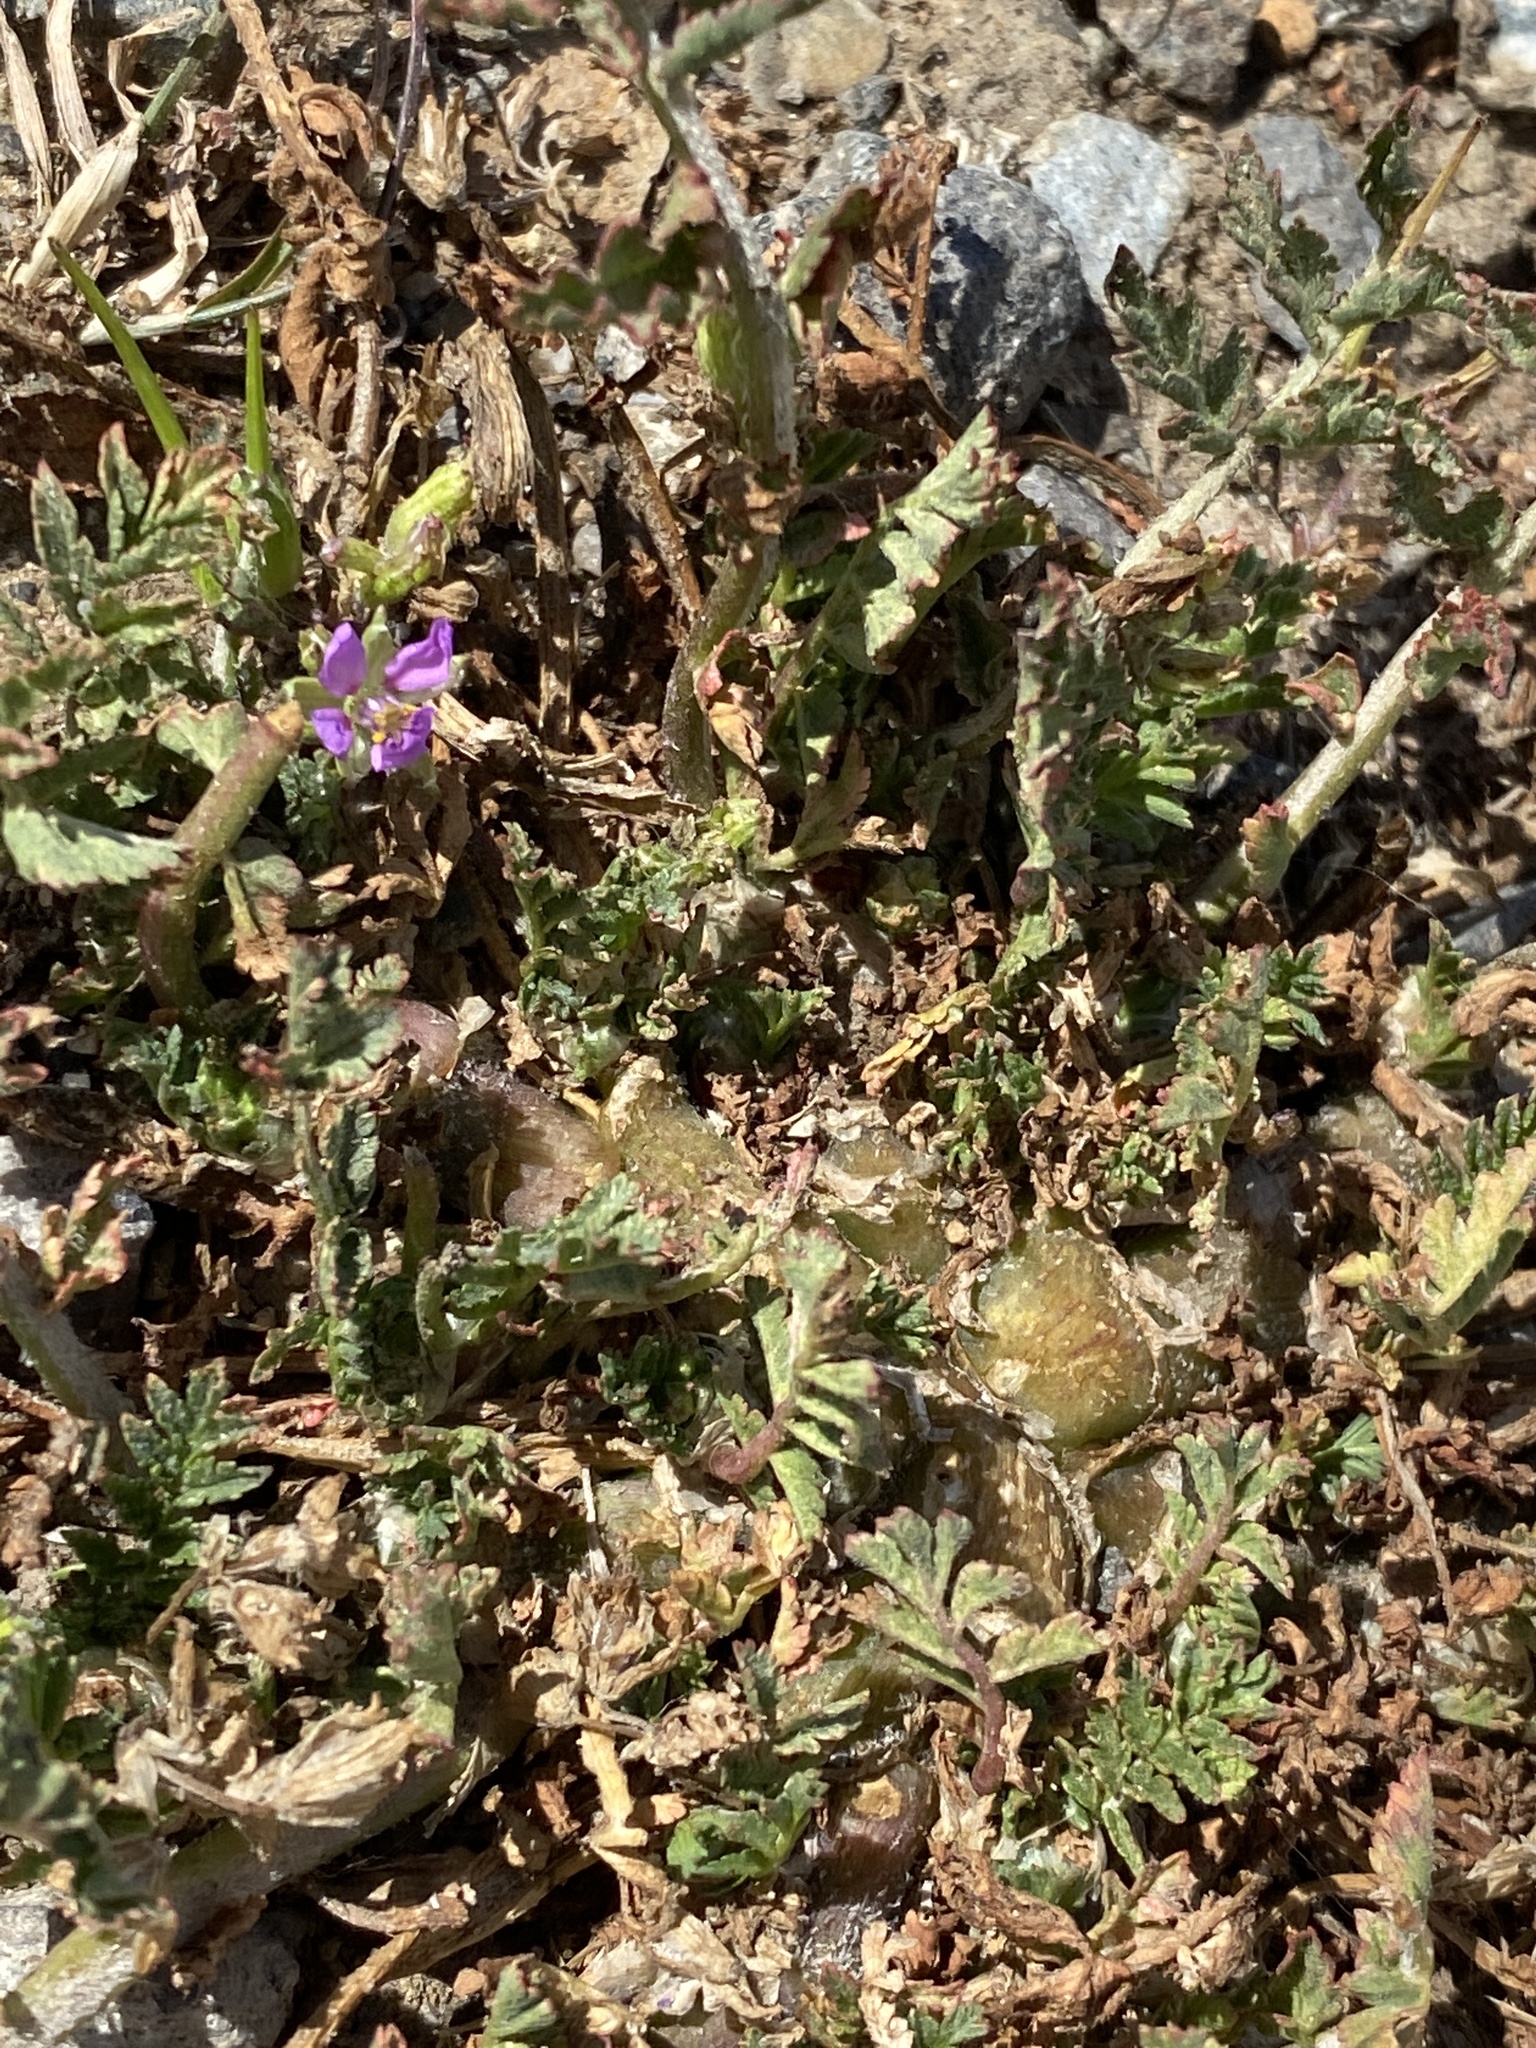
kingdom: Plantae
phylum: Tracheophyta
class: Magnoliopsida
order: Geraniales
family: Geraniaceae
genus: Erodium
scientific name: Erodium moschatum
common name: Musk stork's-bill
